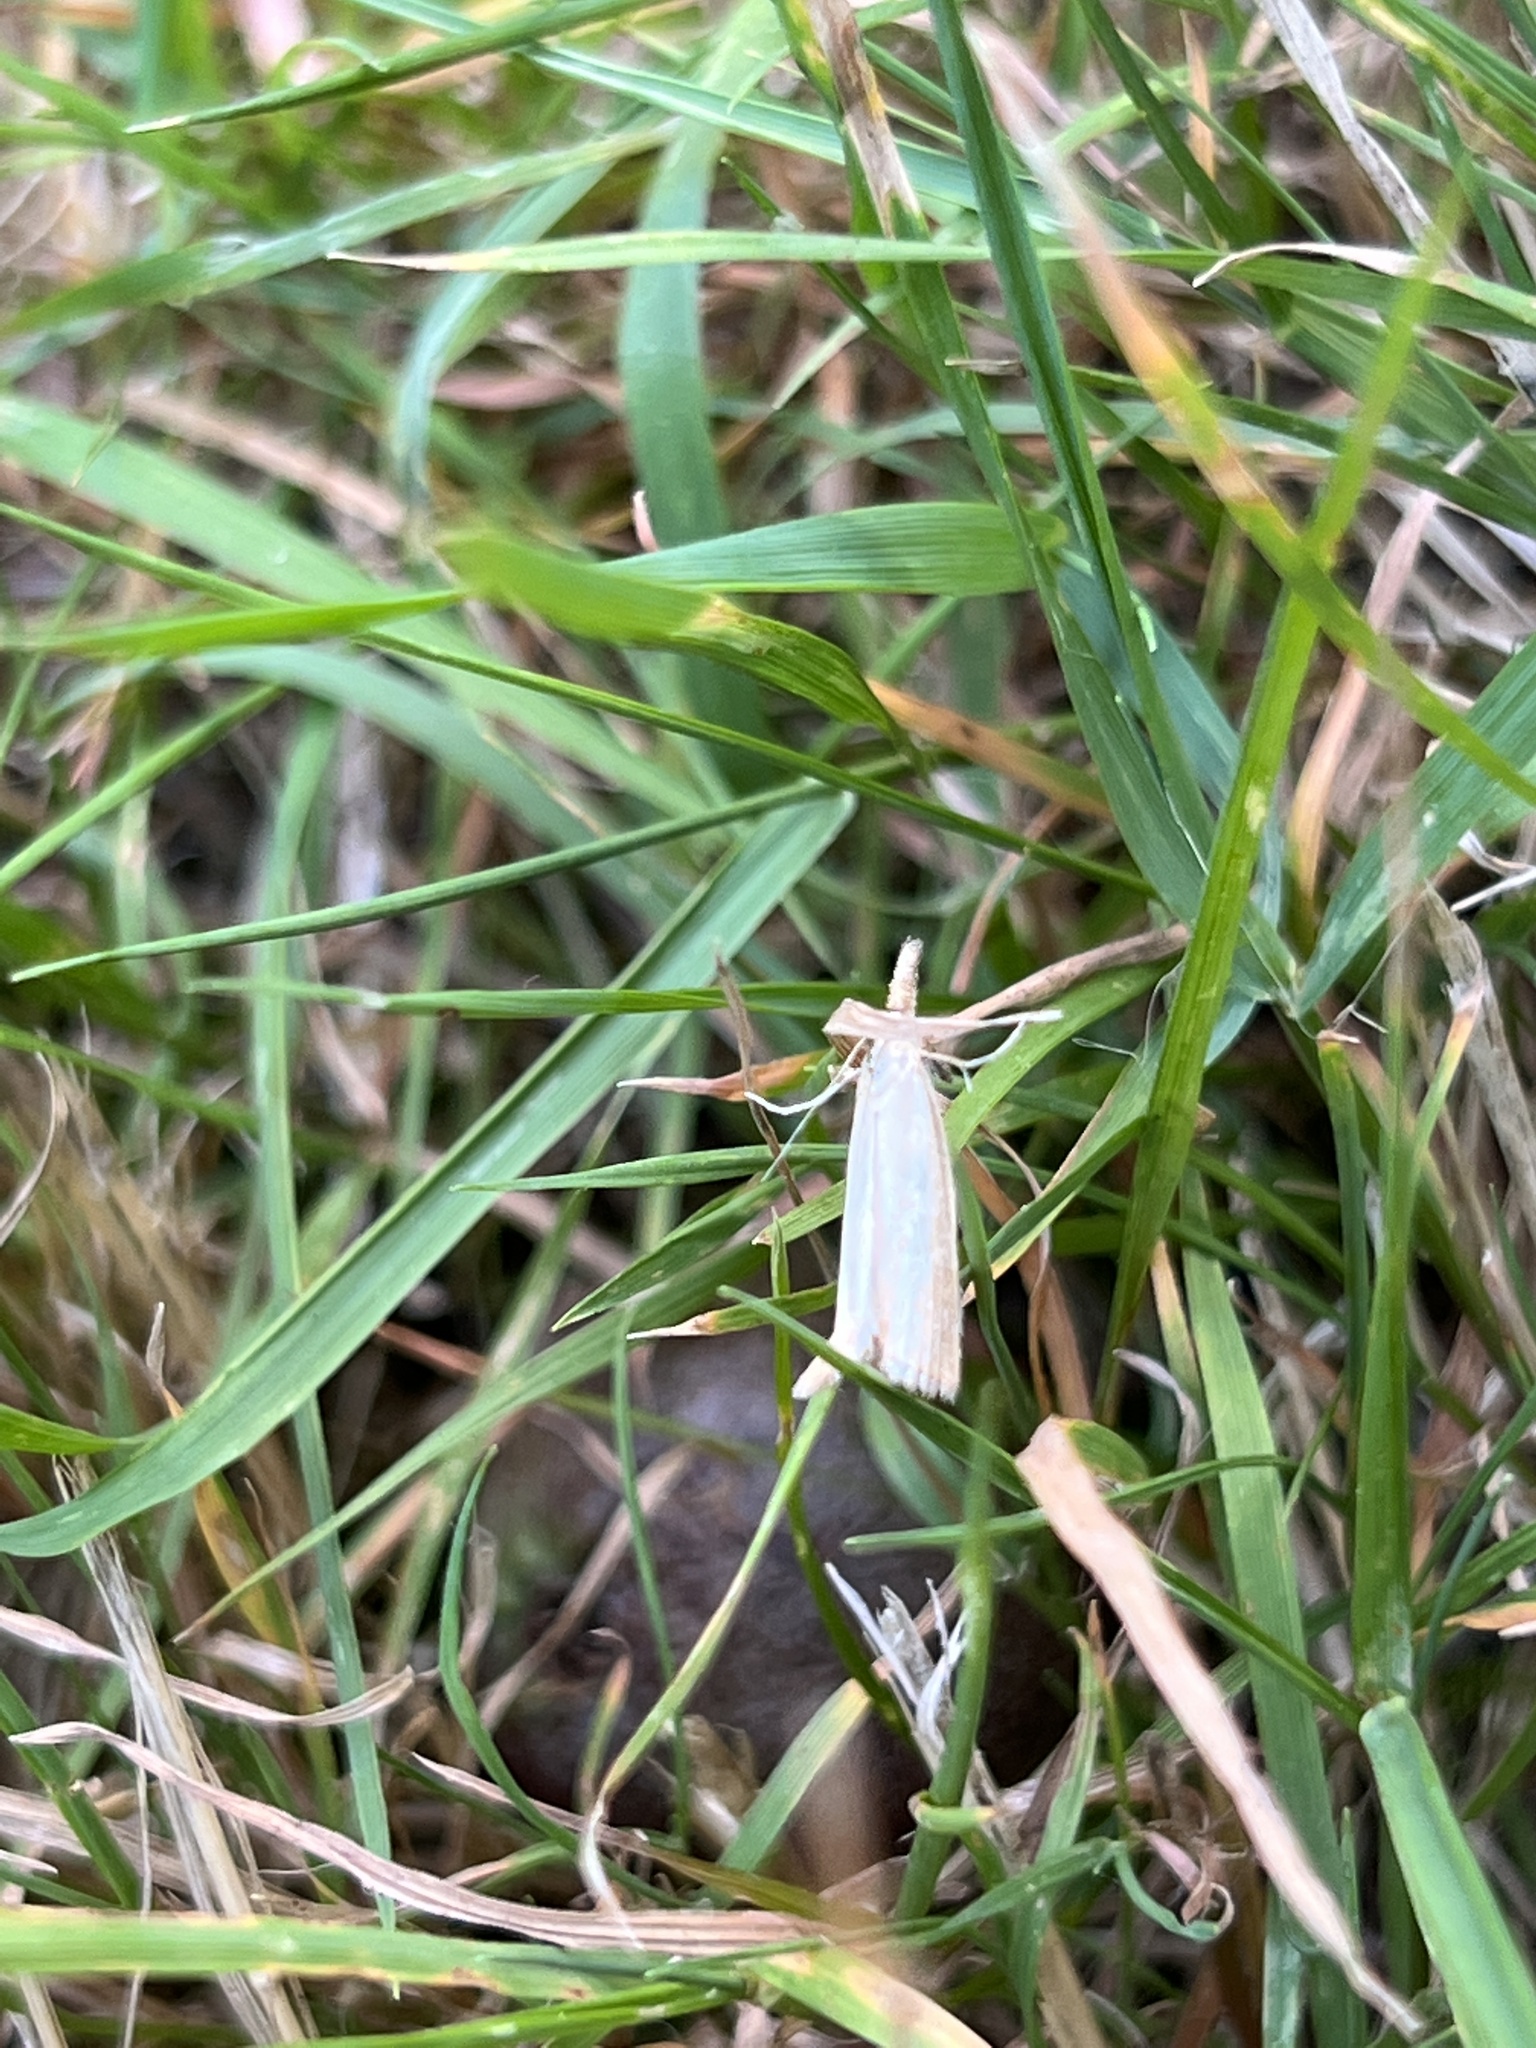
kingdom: Animalia
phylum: Arthropoda
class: Insecta
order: Lepidoptera
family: Crambidae
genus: Agriphila
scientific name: Agriphila straminella
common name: Straw grass-veneer
